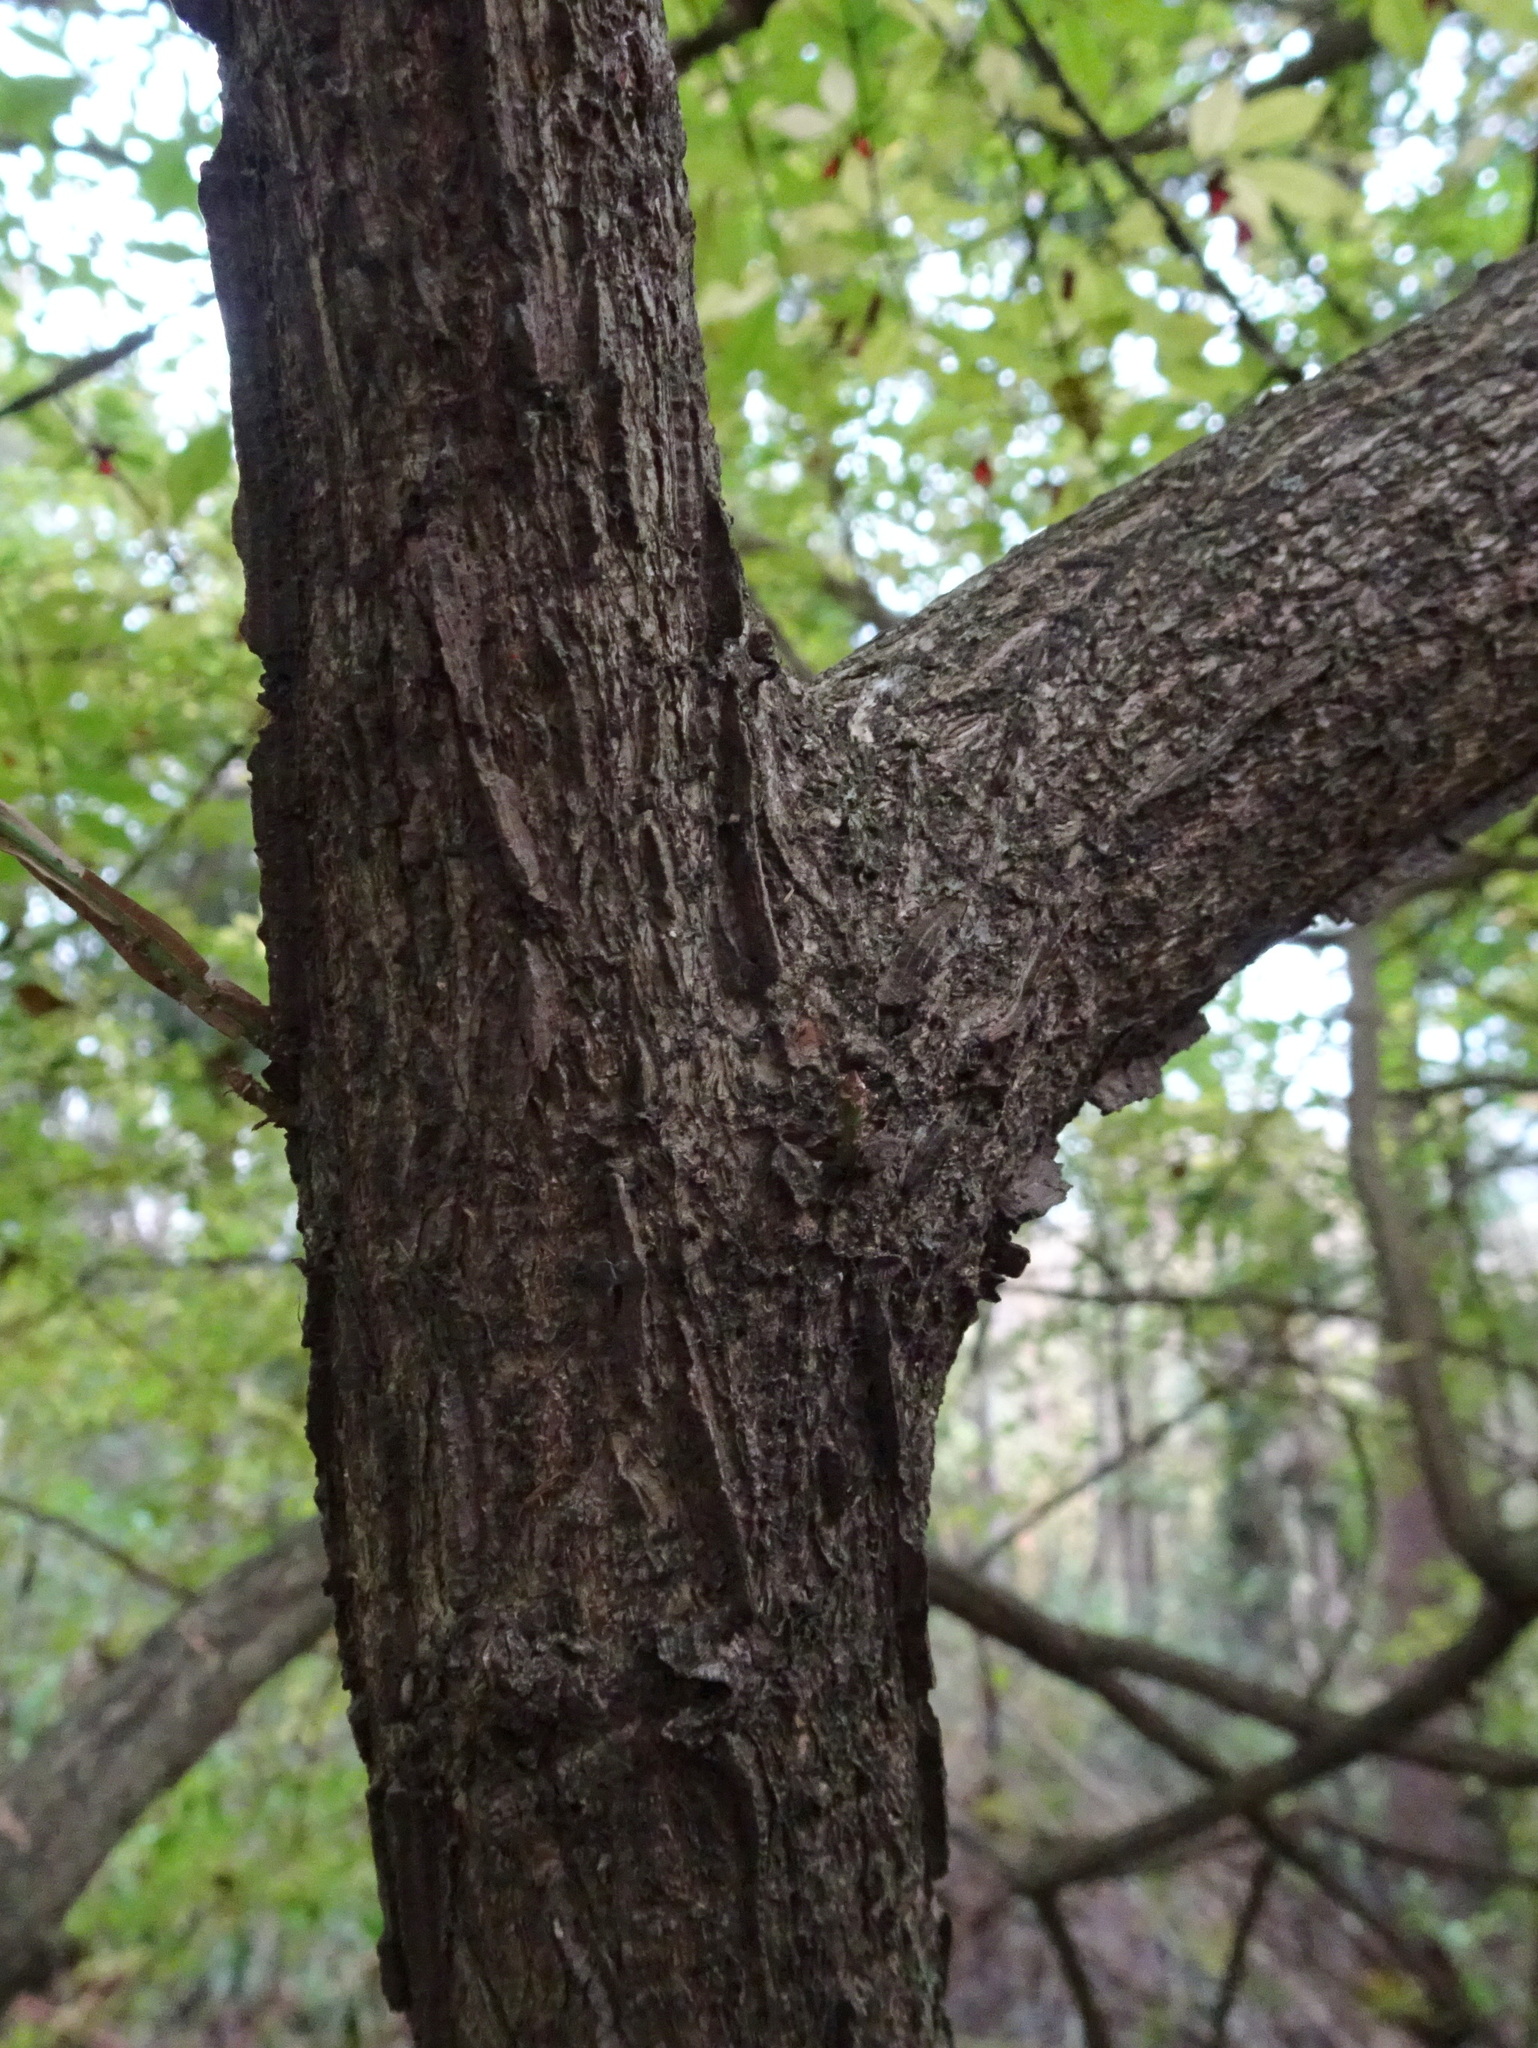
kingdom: Plantae
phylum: Tracheophyta
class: Magnoliopsida
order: Celastrales
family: Celastraceae
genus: Euonymus
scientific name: Euonymus alatus
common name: Winged euonymus
